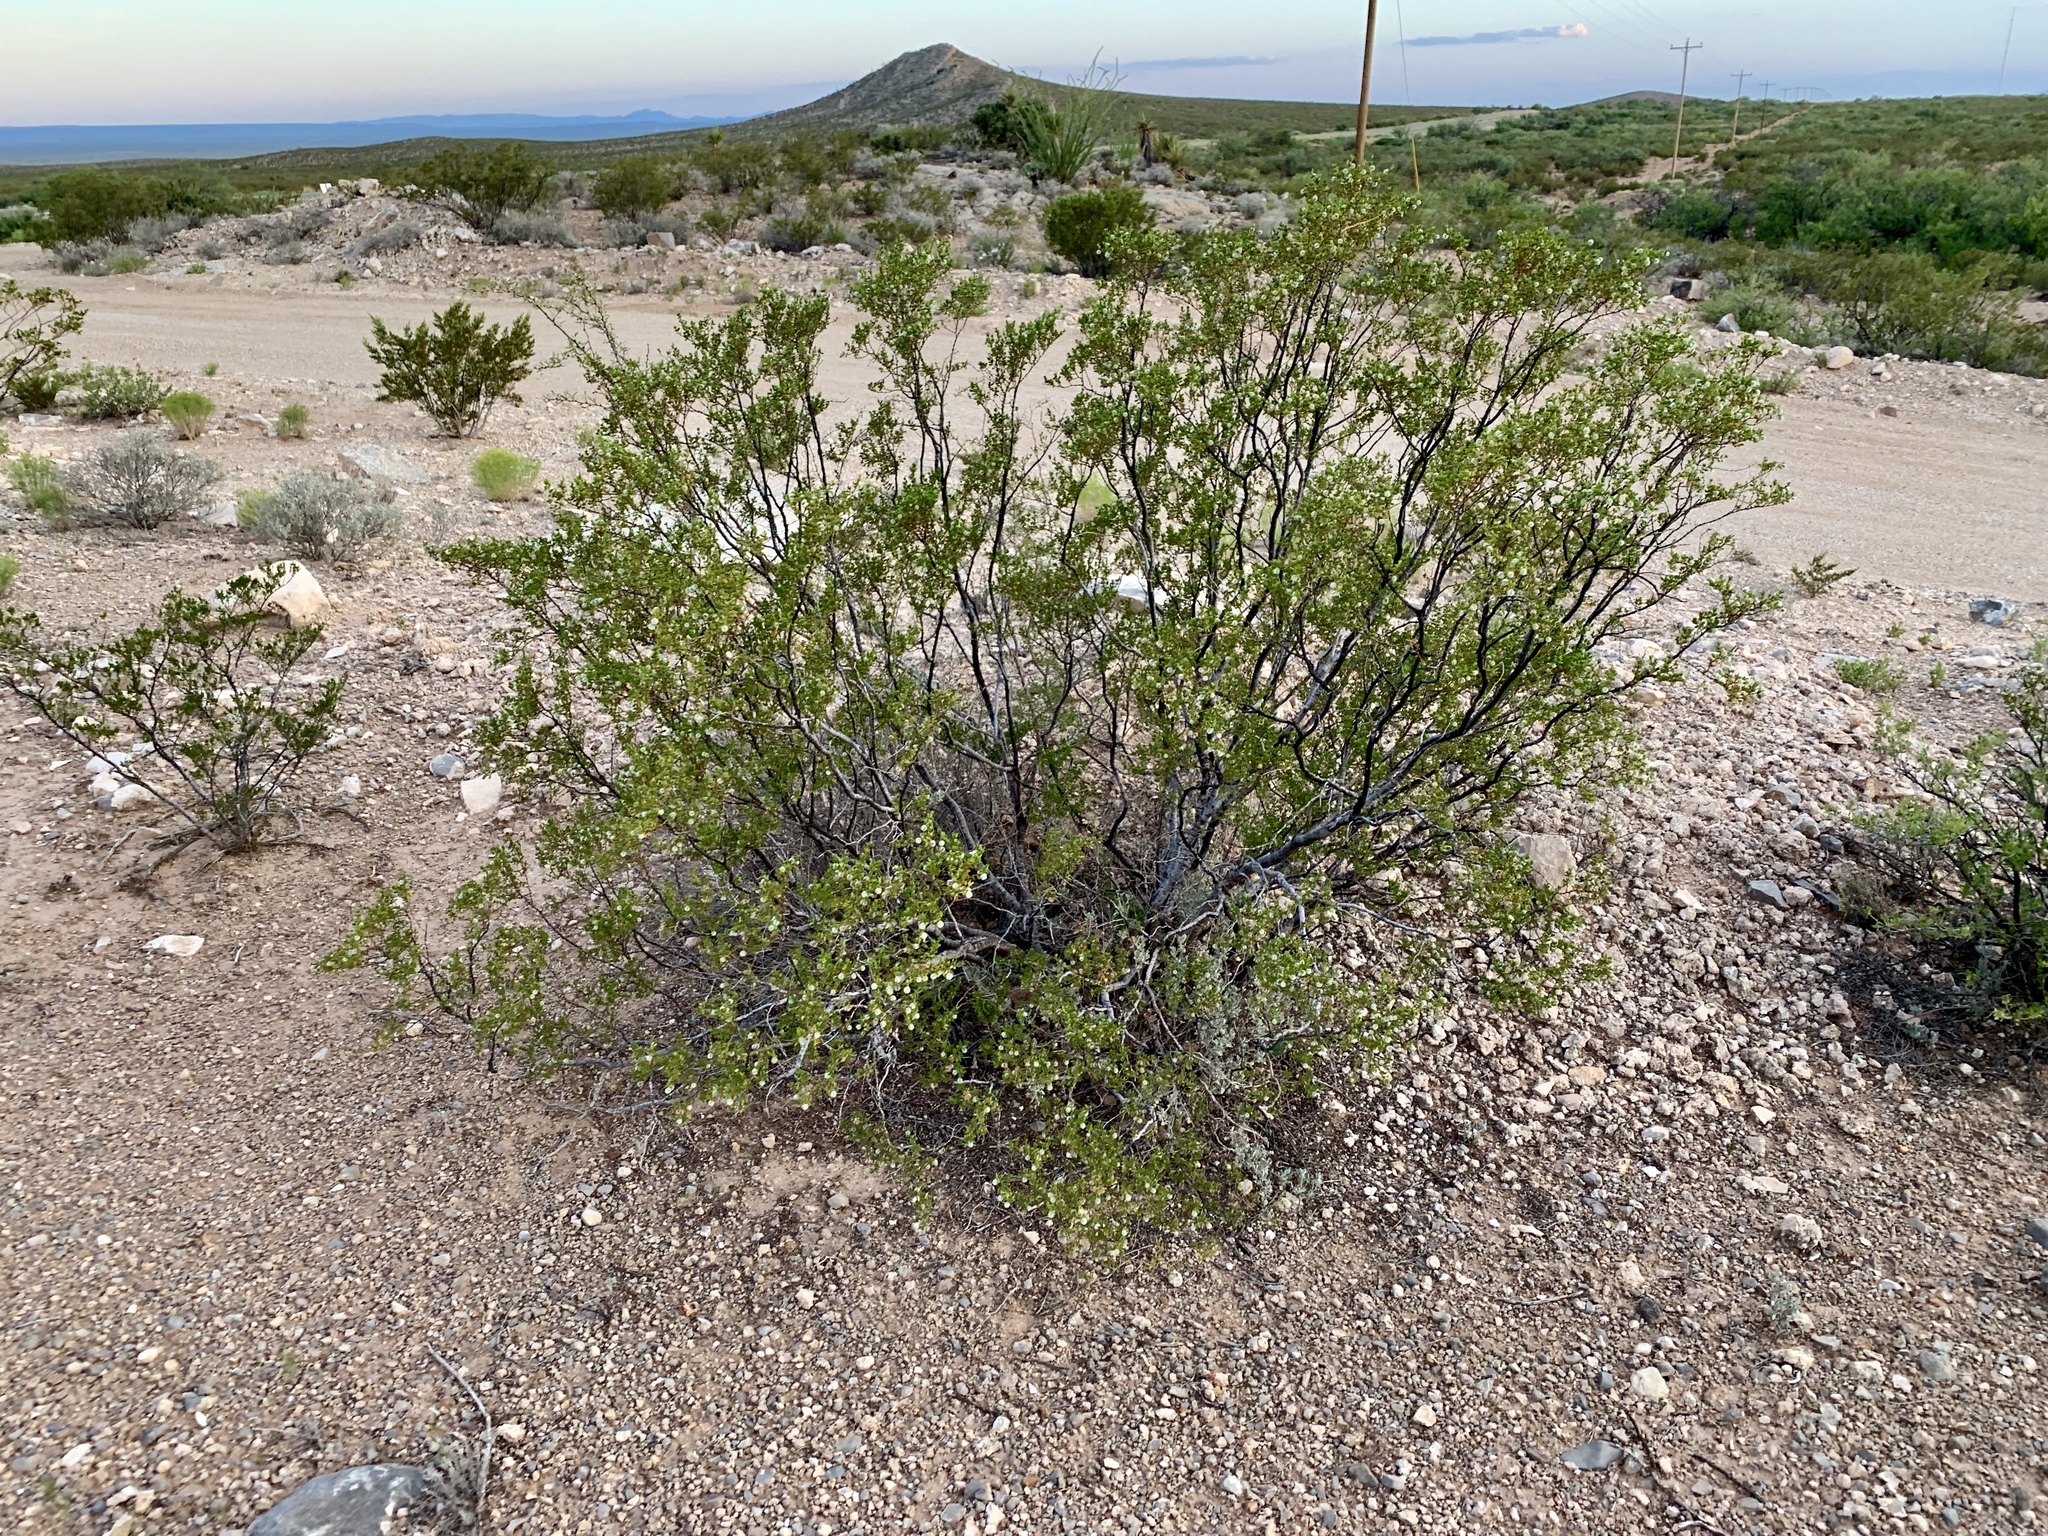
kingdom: Plantae
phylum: Tracheophyta
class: Magnoliopsida
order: Zygophyllales
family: Zygophyllaceae
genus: Larrea
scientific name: Larrea tridentata
